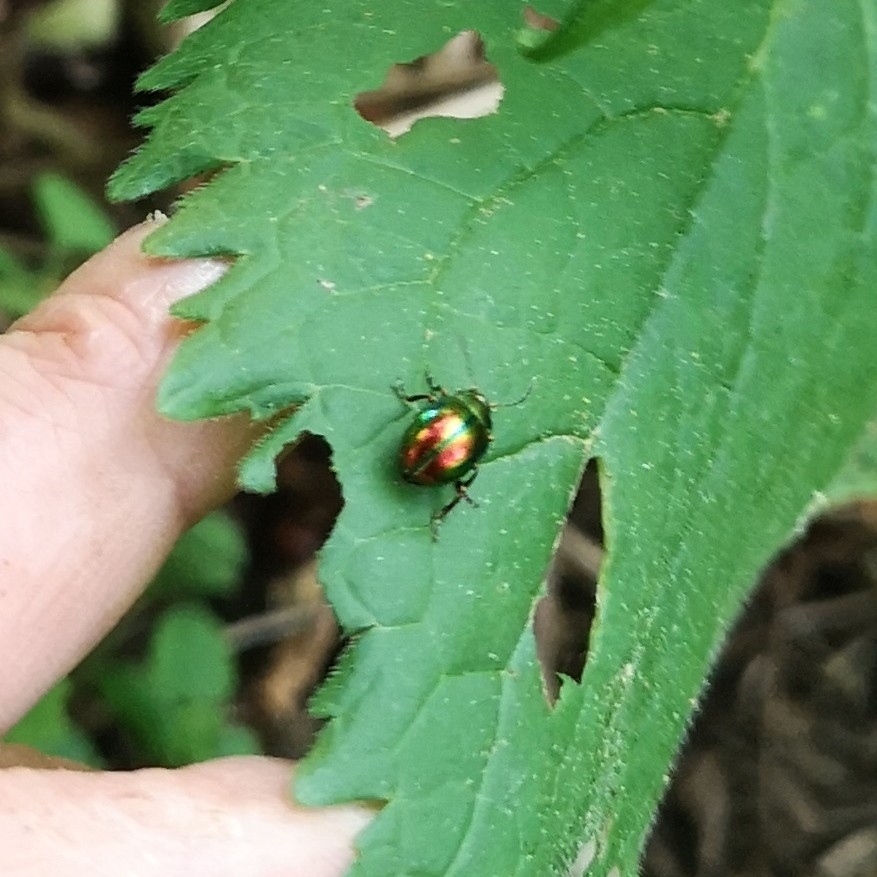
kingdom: Animalia
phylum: Arthropoda
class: Insecta
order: Coleoptera
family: Chrysomelidae
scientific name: Chrysomelidae
